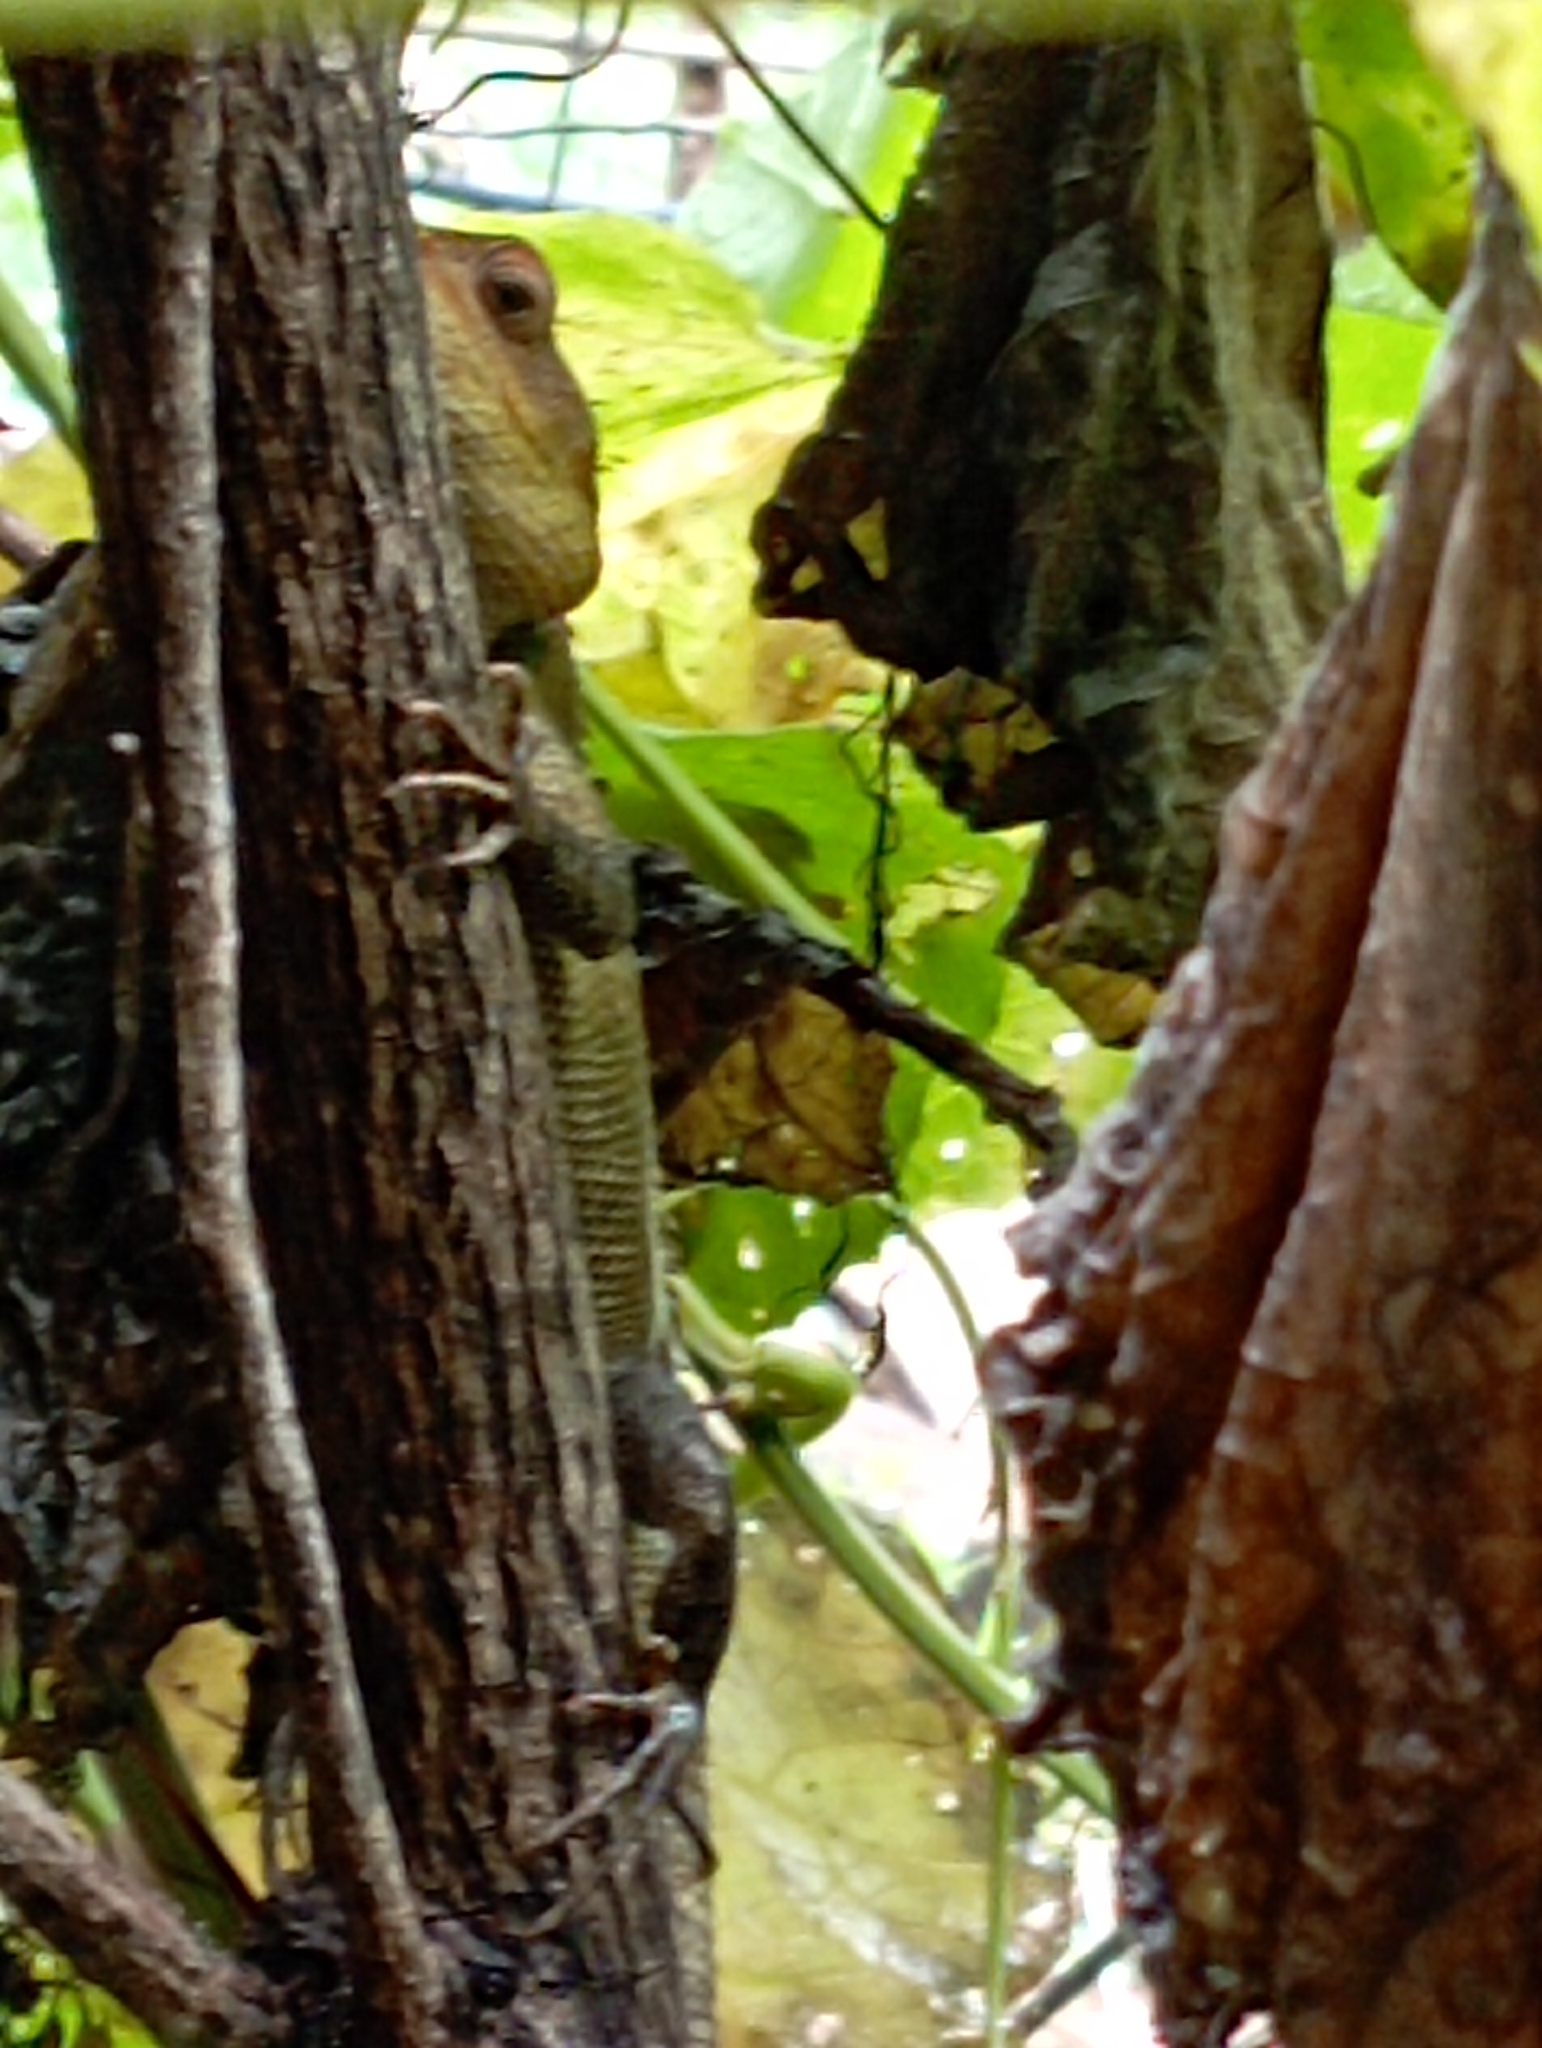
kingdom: Animalia
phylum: Chordata
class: Squamata
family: Agamidae
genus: Calotes
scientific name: Calotes versicolor
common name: Oriental garden lizard
